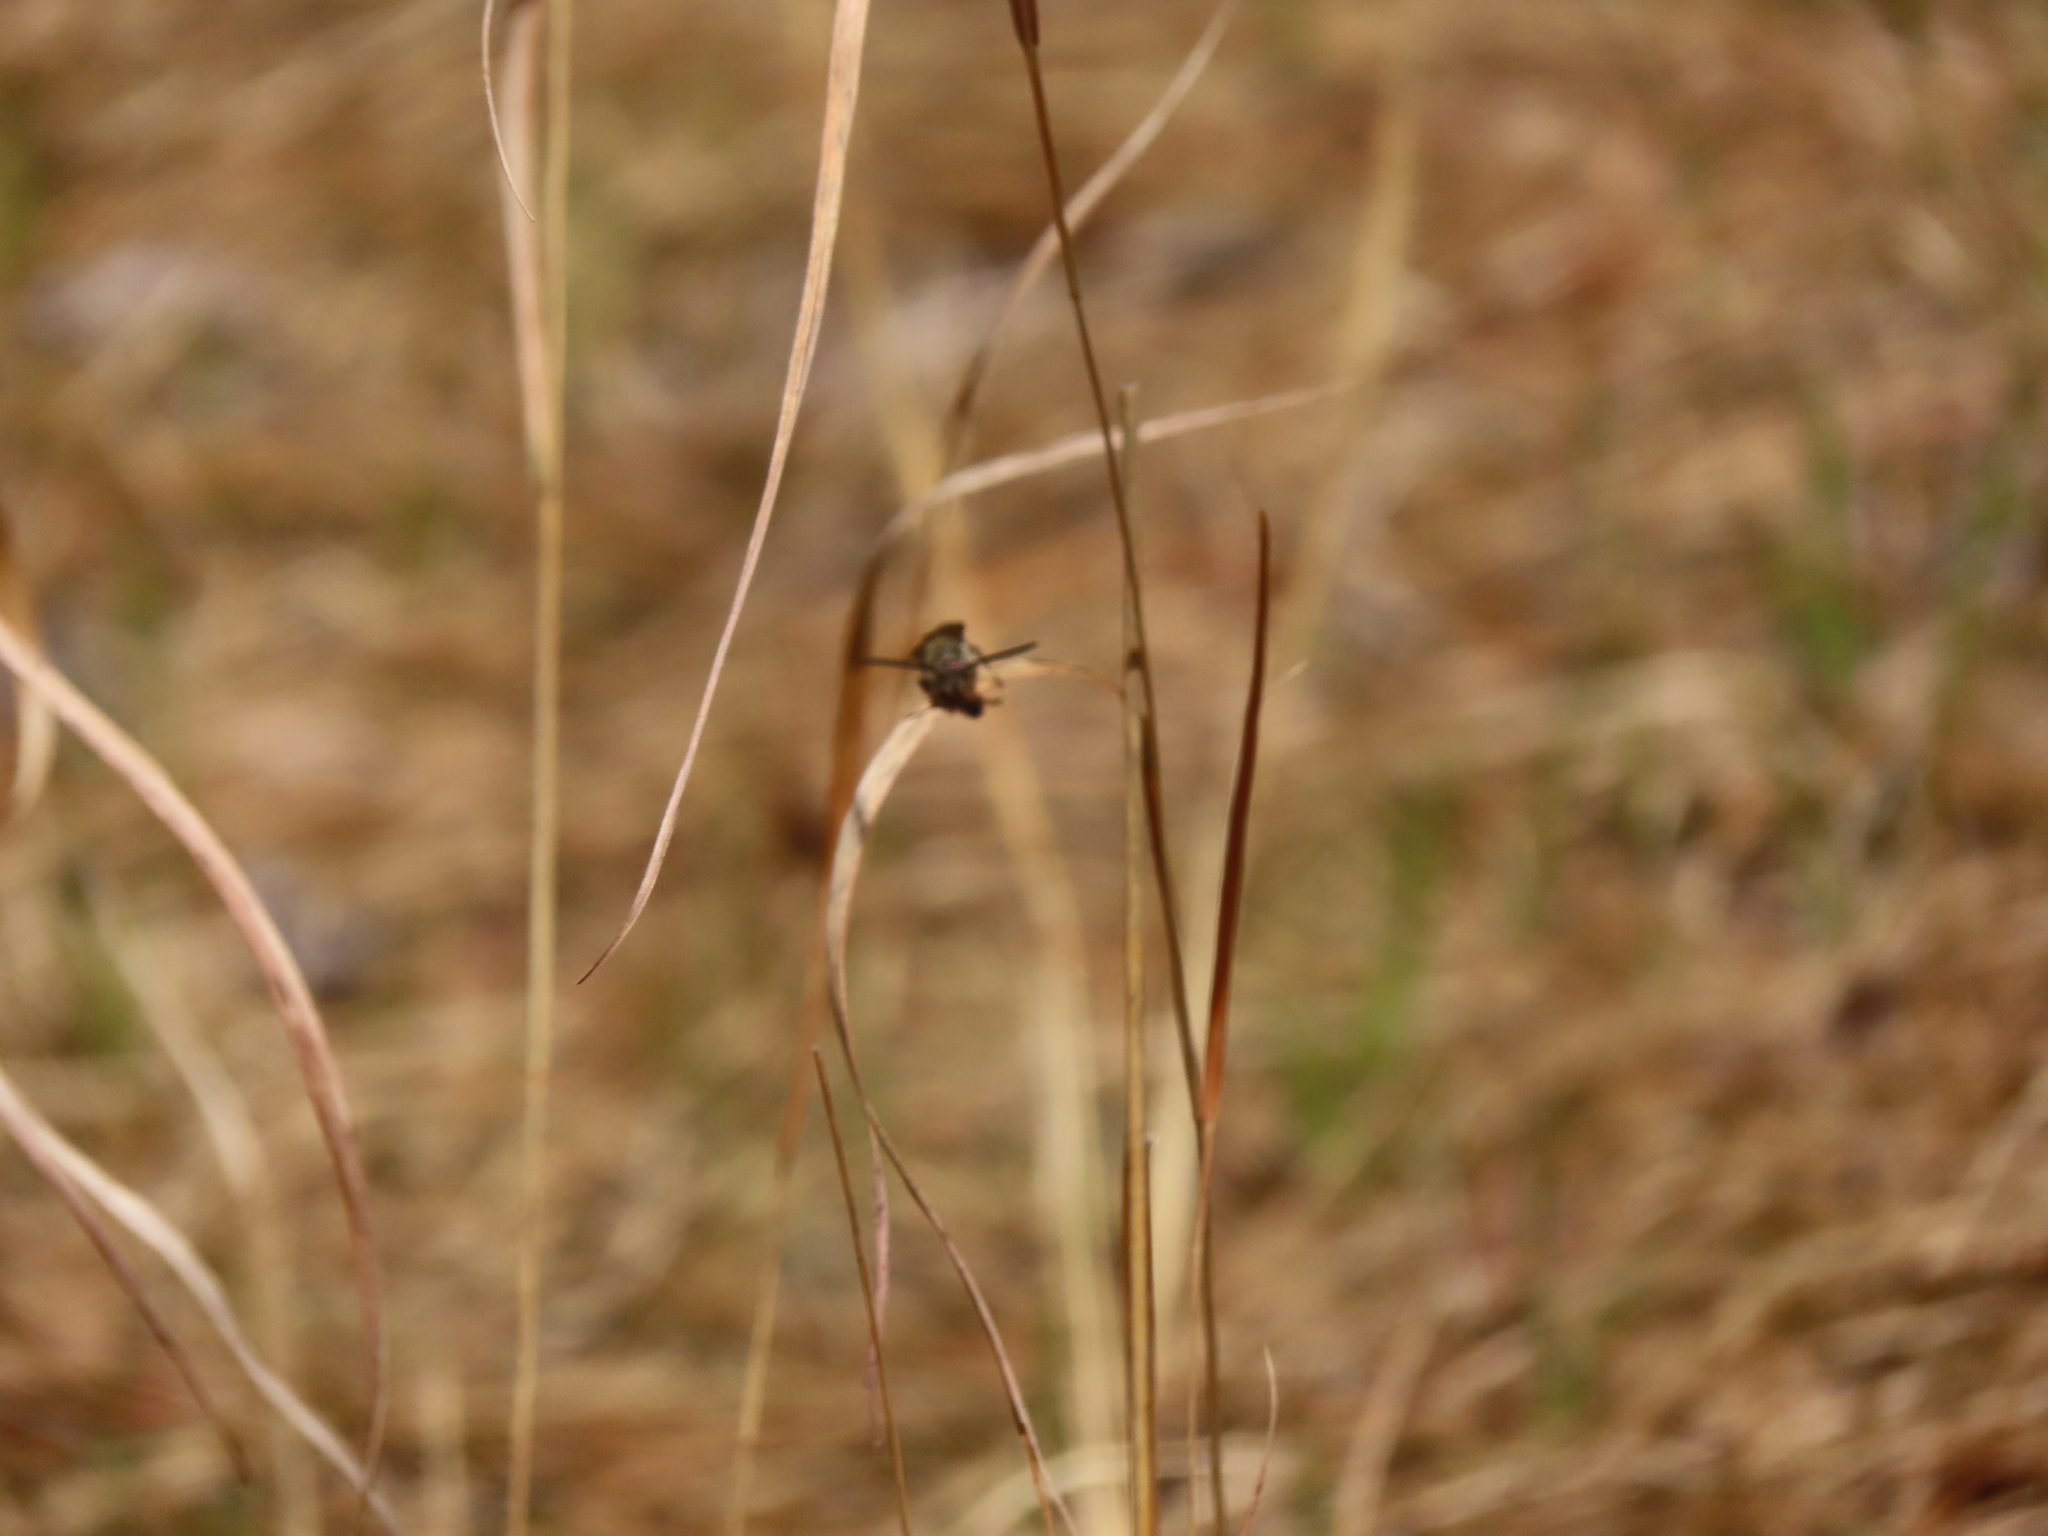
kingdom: Animalia
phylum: Arthropoda
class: Insecta
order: Hymenoptera
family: Scoliidae
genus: Dielis
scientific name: Dielis
